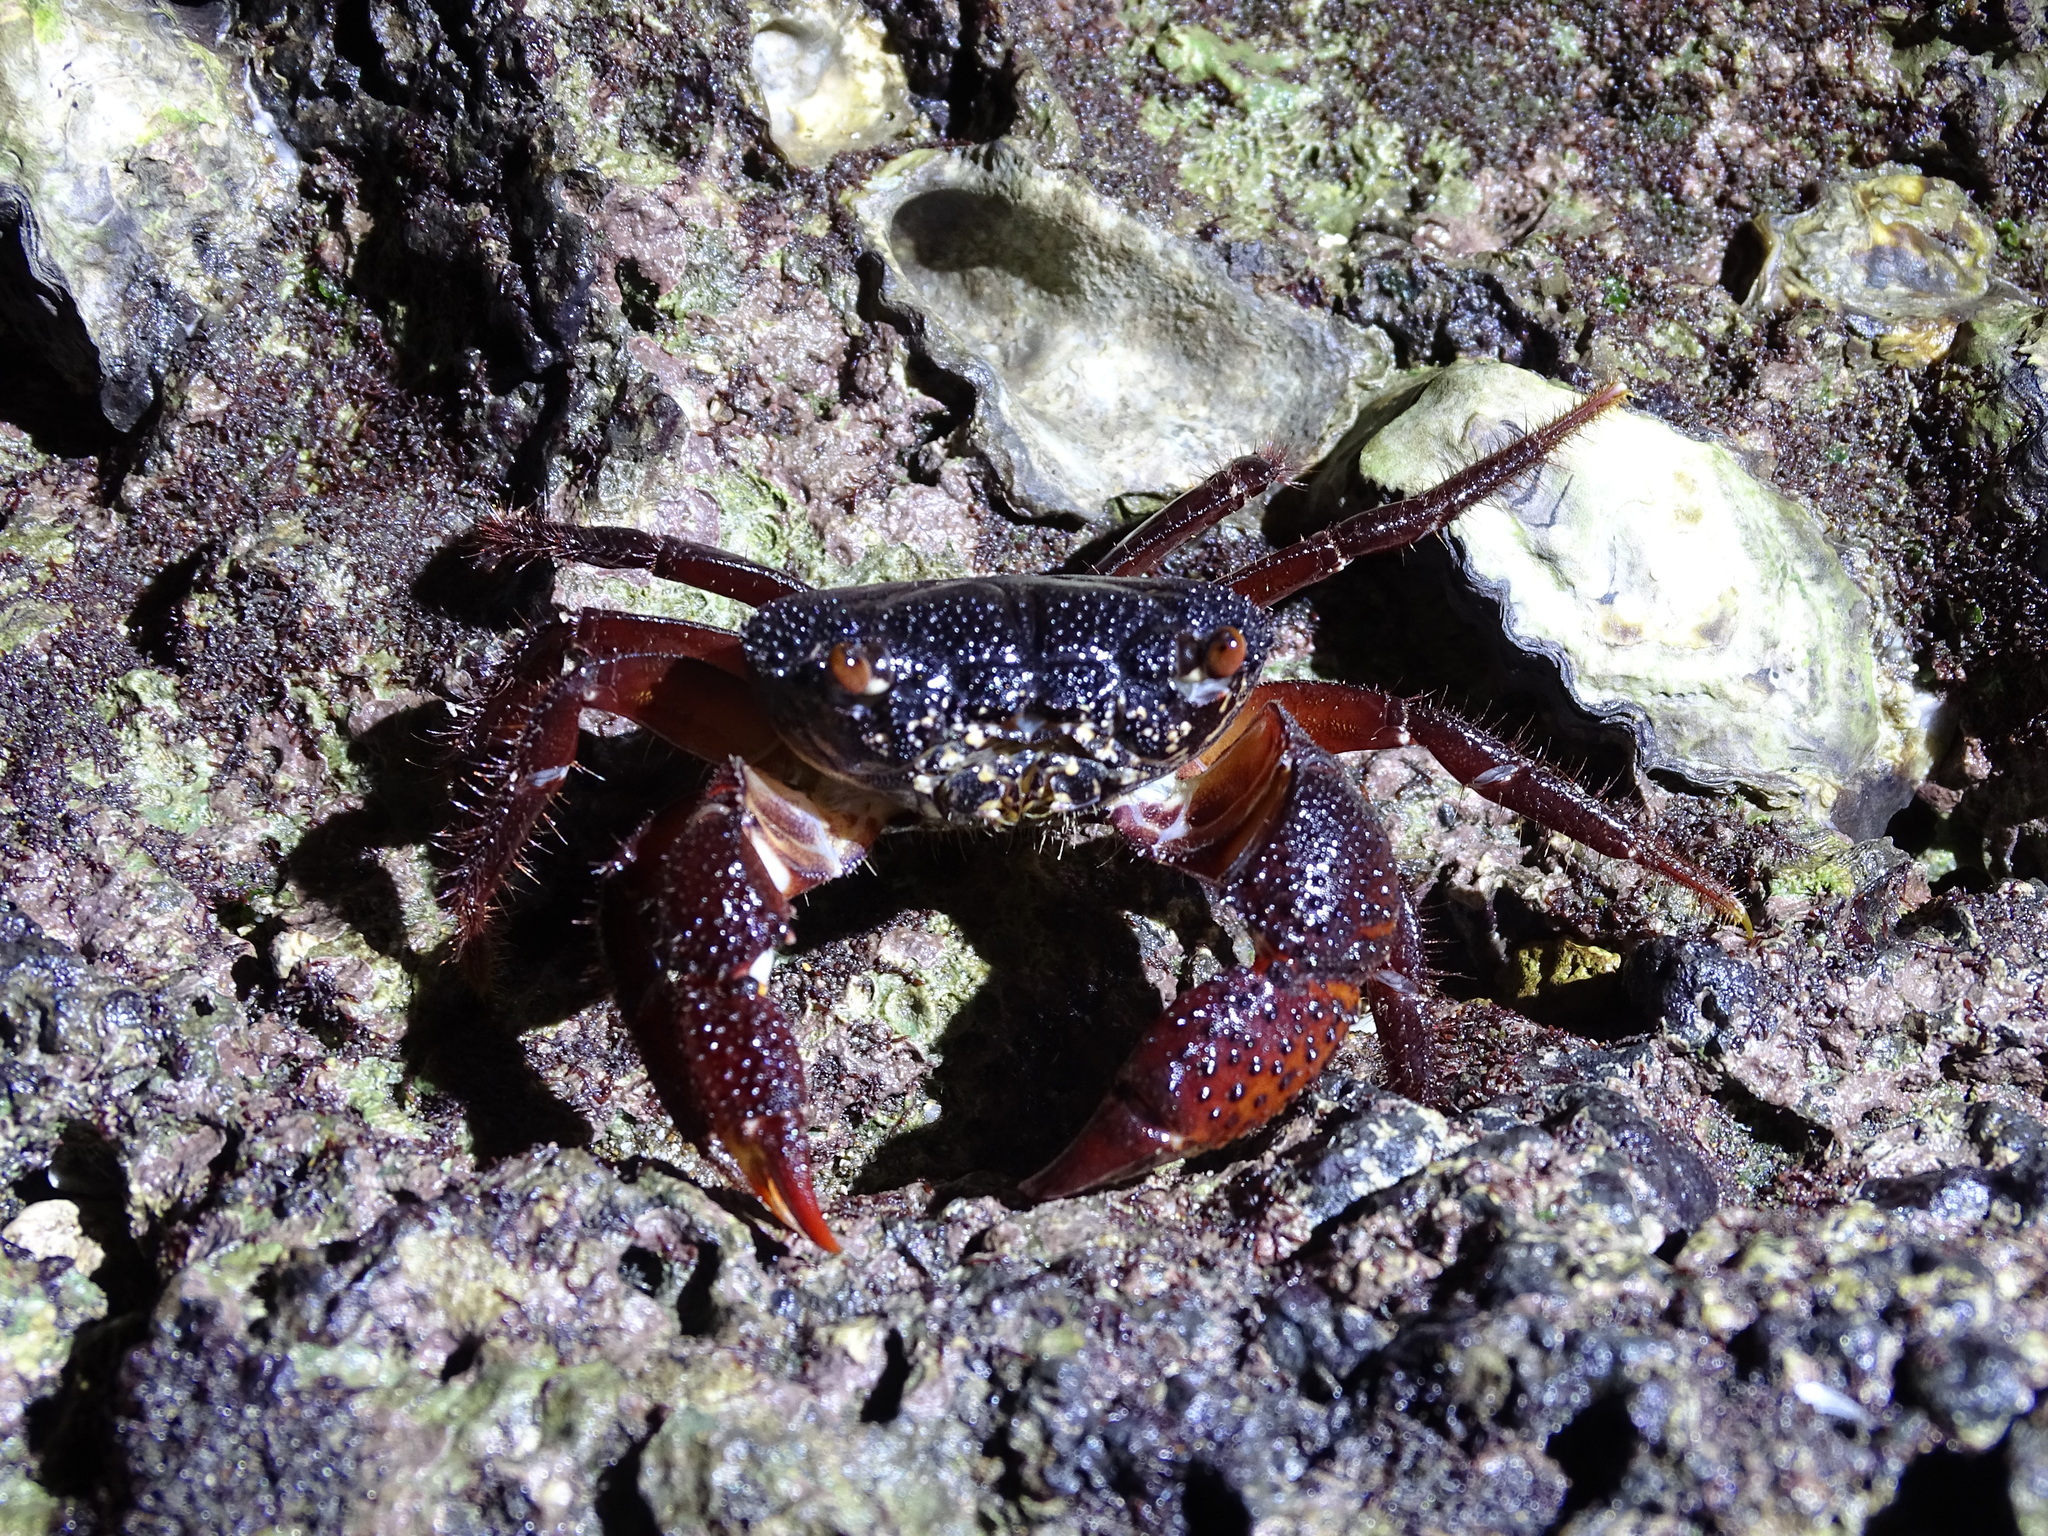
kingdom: Animalia
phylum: Arthropoda
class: Malacostraca
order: Decapoda
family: Eriphiidae
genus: Eriphia
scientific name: Eriphia ferox
